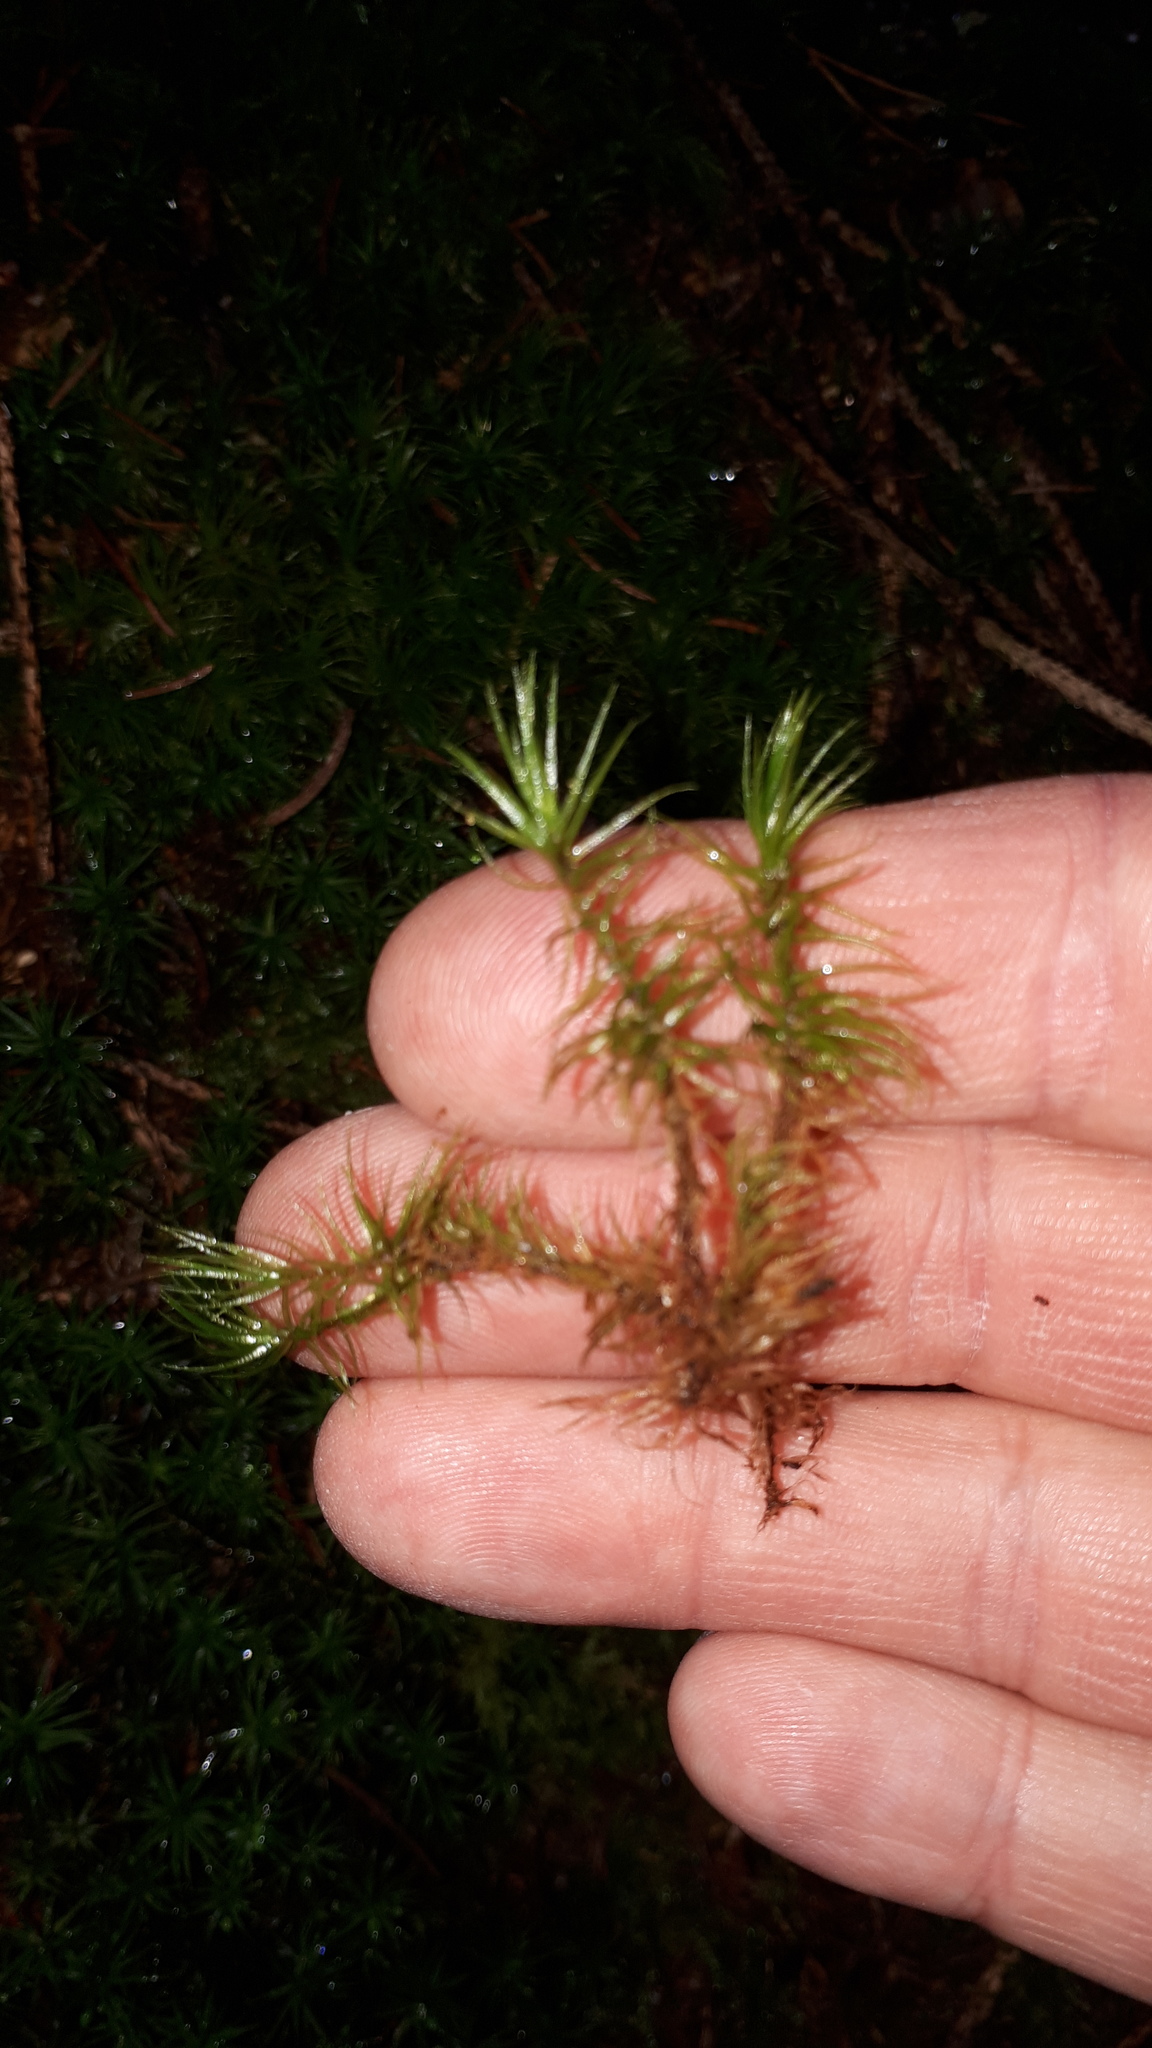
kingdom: Plantae
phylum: Bryophyta
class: Bryopsida
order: Dicranales
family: Dicranaceae
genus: Dicranum
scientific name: Dicranum scoparium
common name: Broom fork-moss
